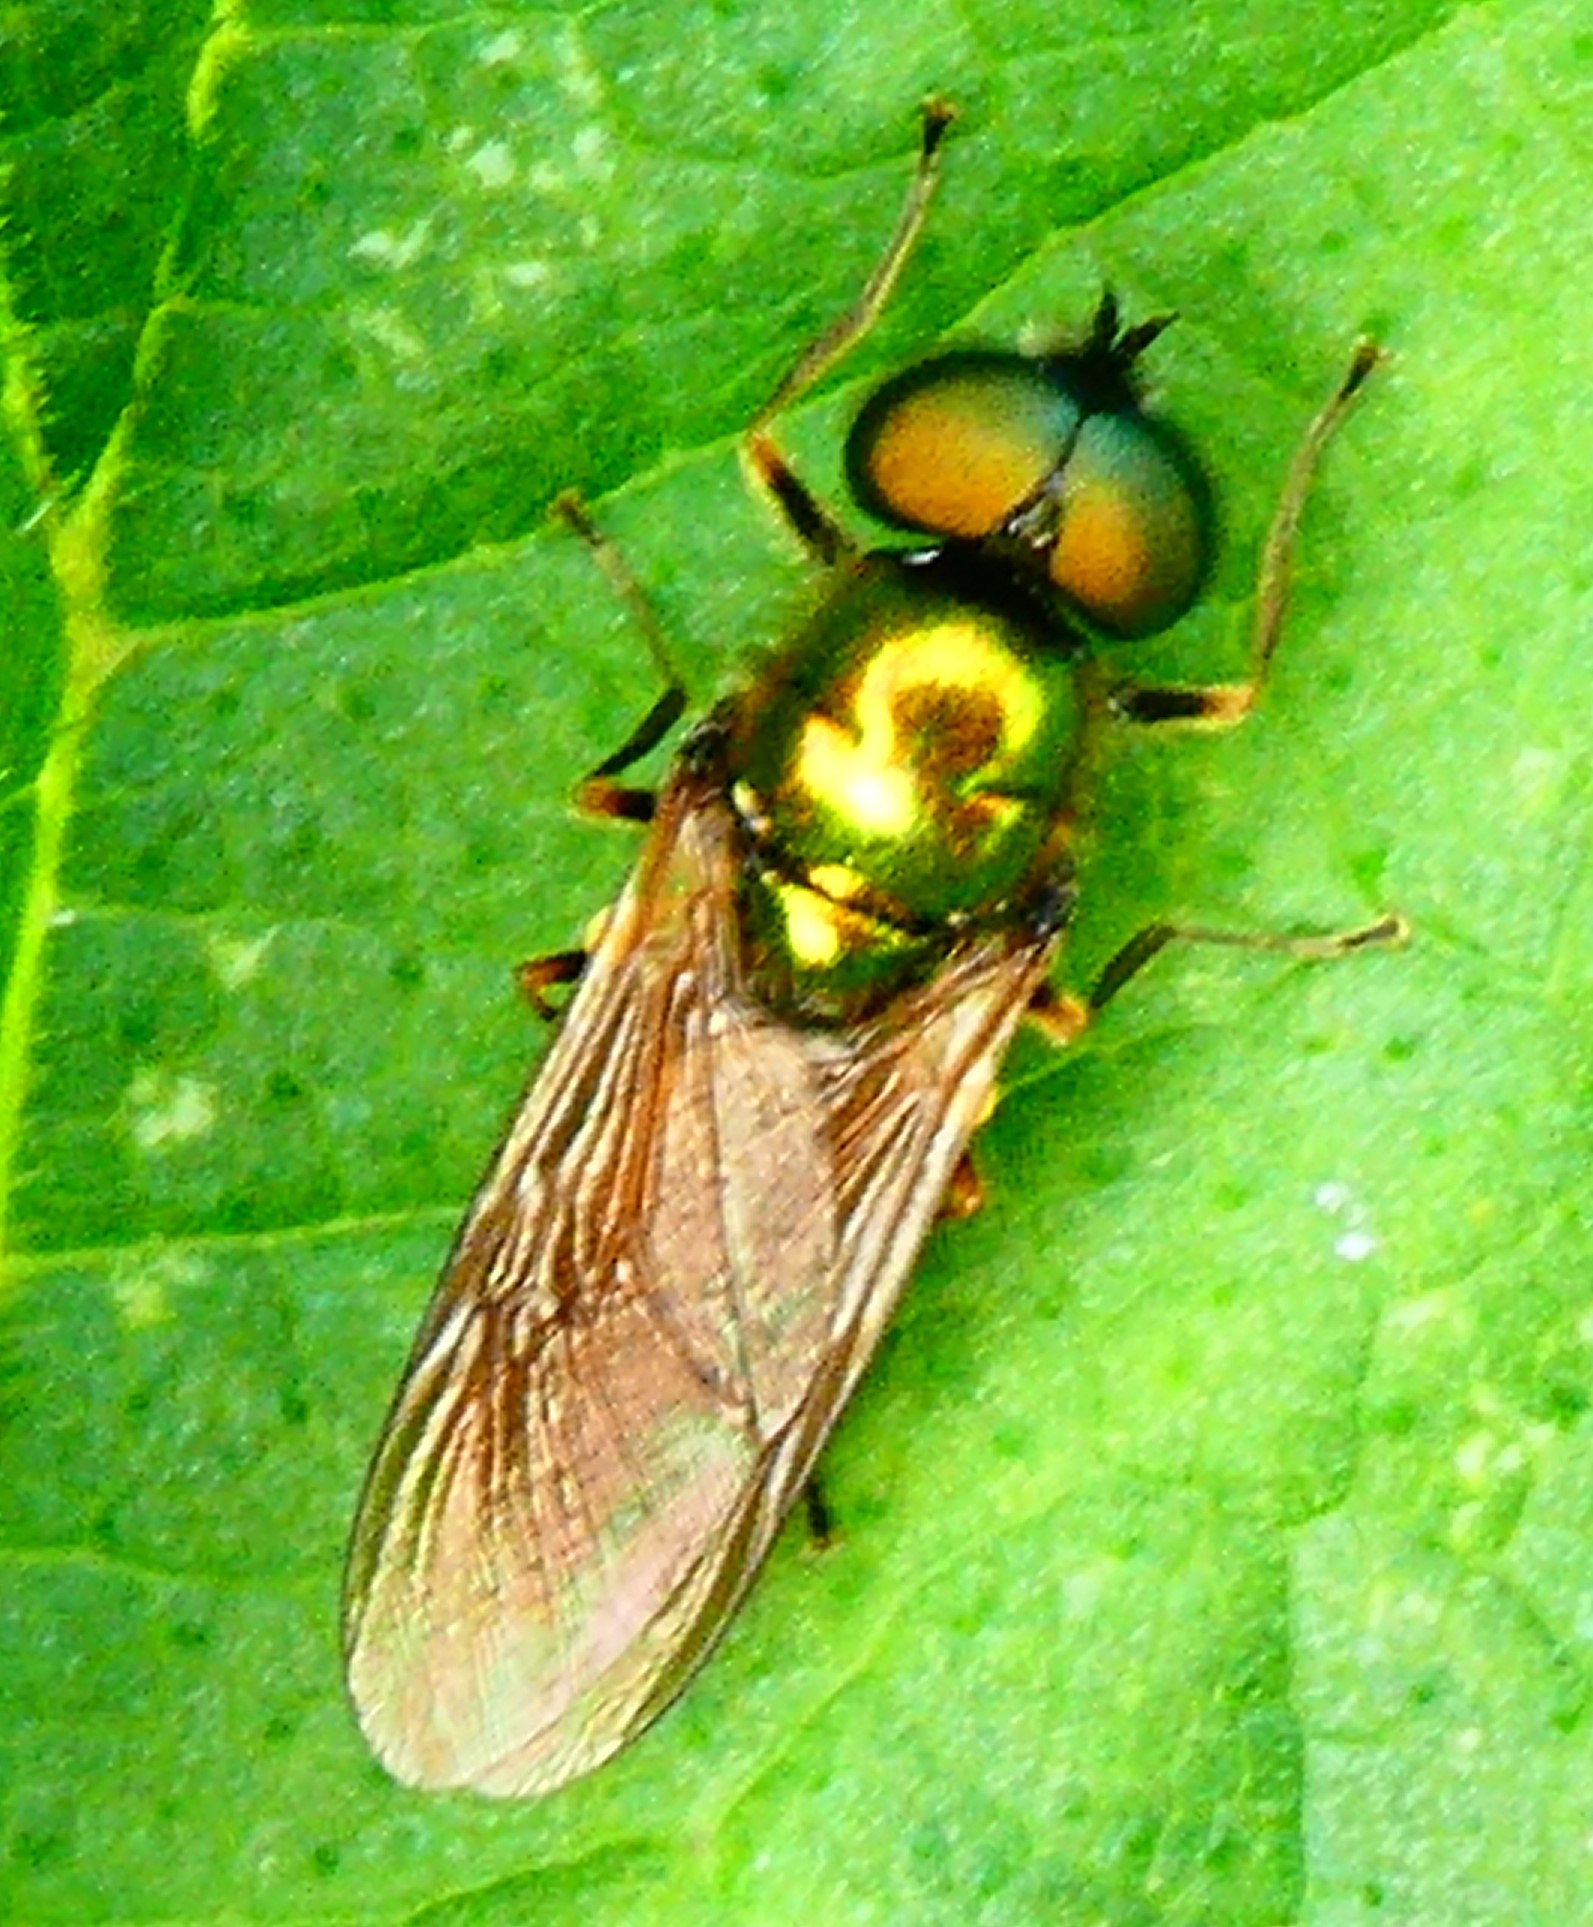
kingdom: Animalia
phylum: Arthropoda
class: Insecta
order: Diptera
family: Stratiomyidae
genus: Chloromyia
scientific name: Chloromyia formosa
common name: Soldier fly
